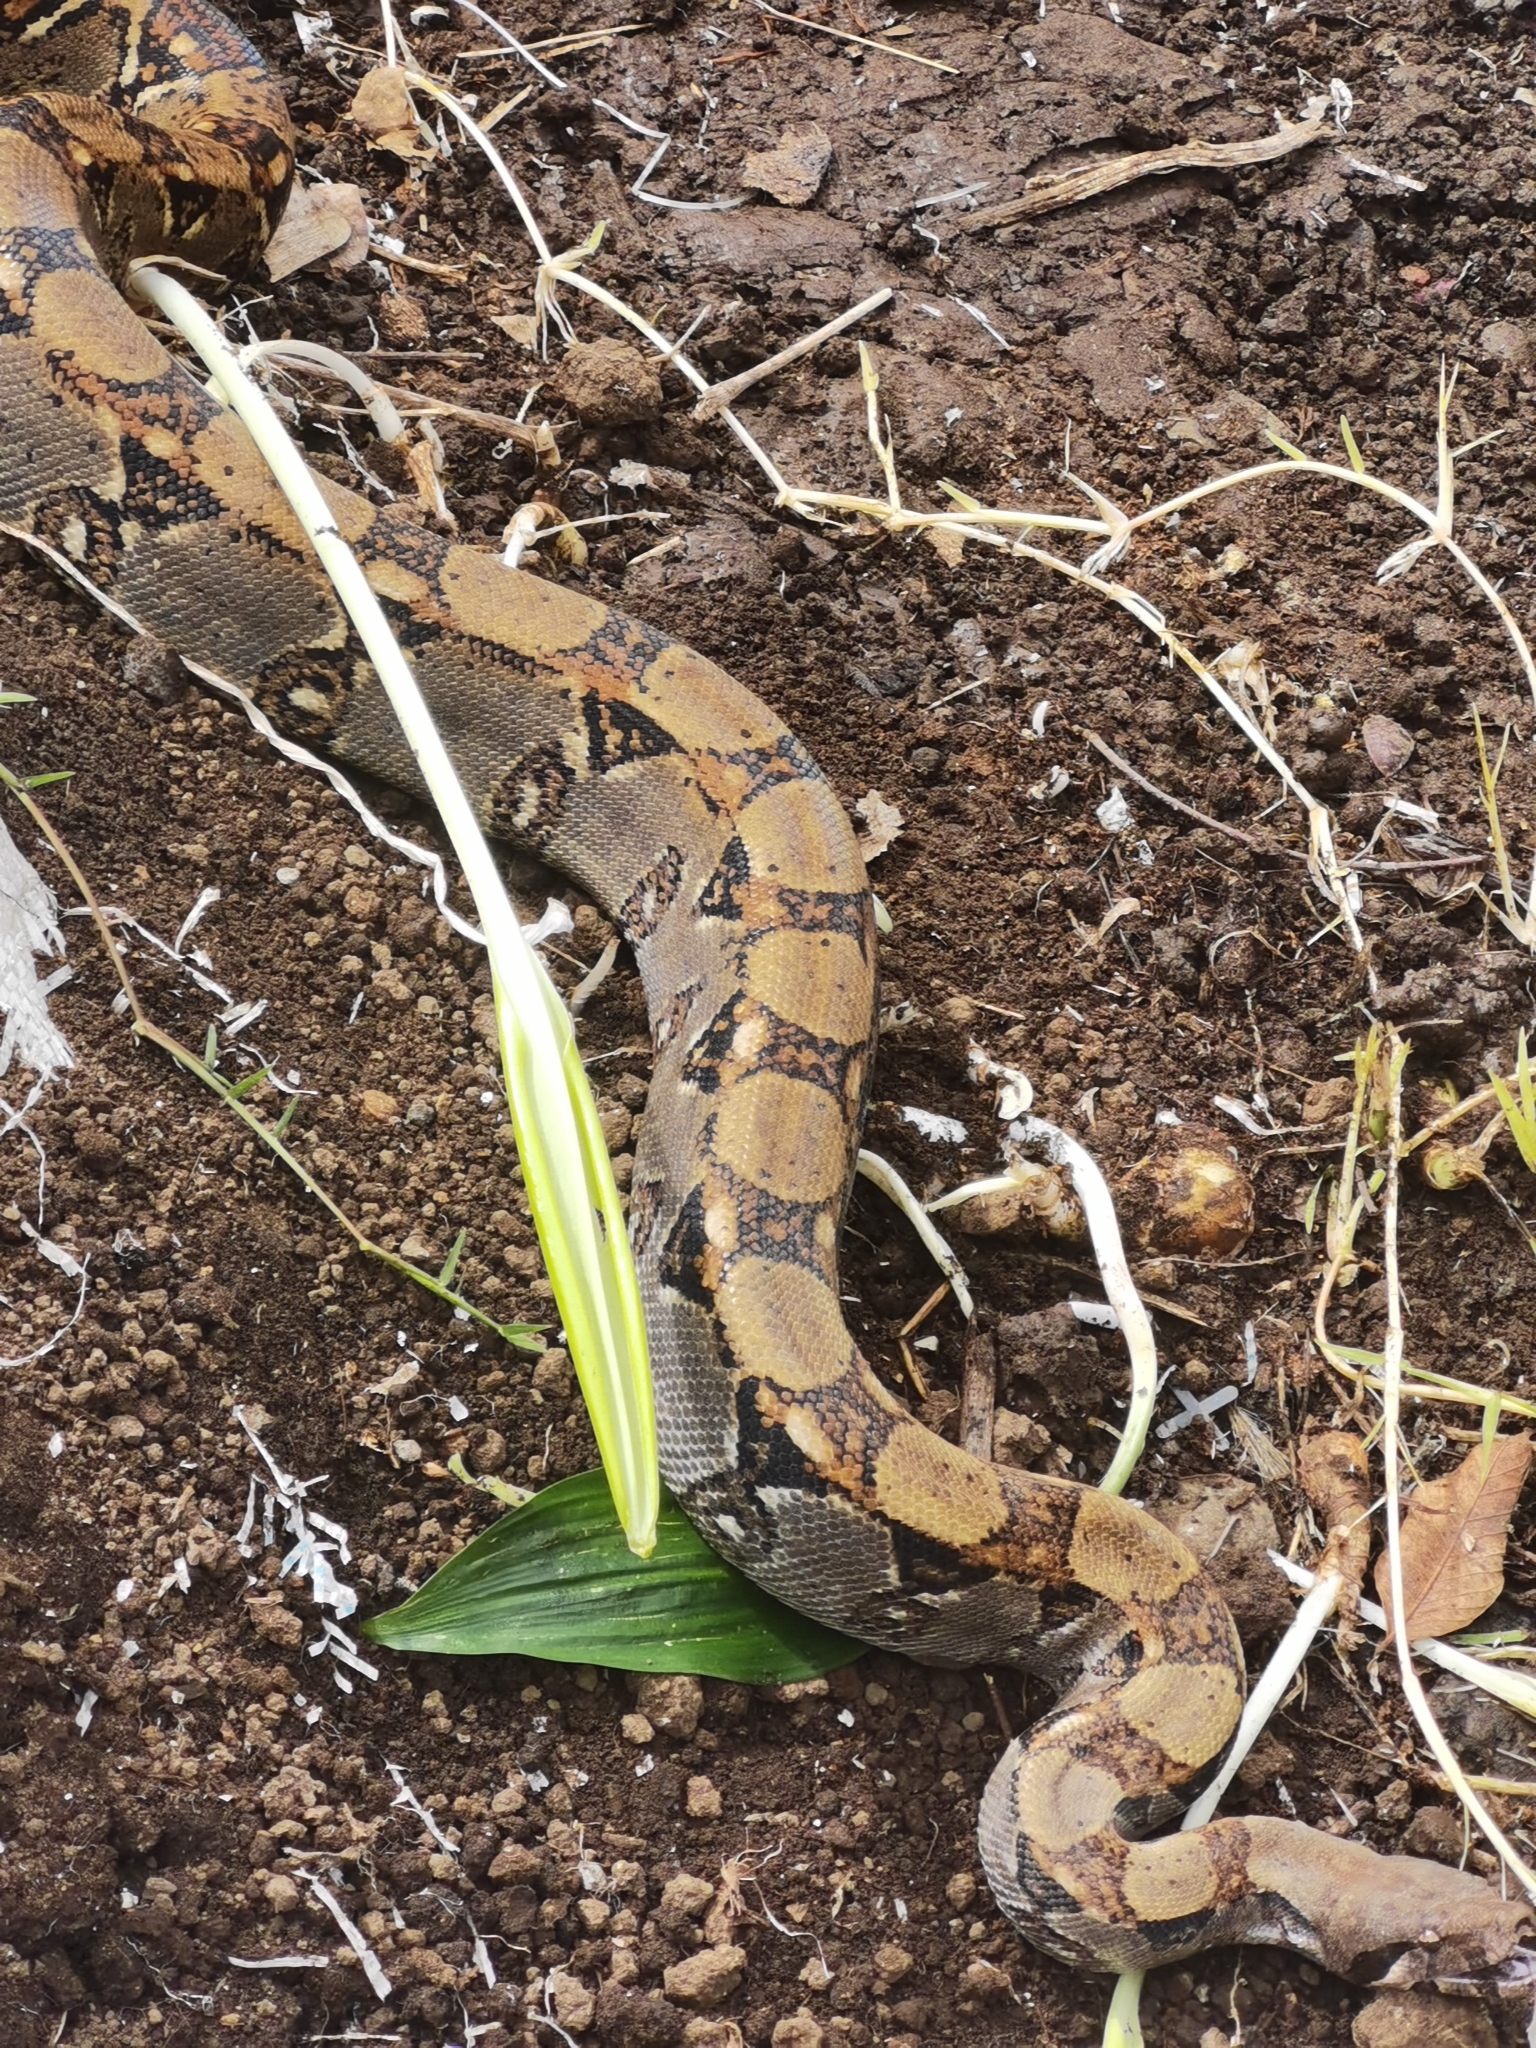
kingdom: Animalia
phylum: Chordata
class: Squamata
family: Boidae
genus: Boa
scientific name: Boa imperator
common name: Central american boa
